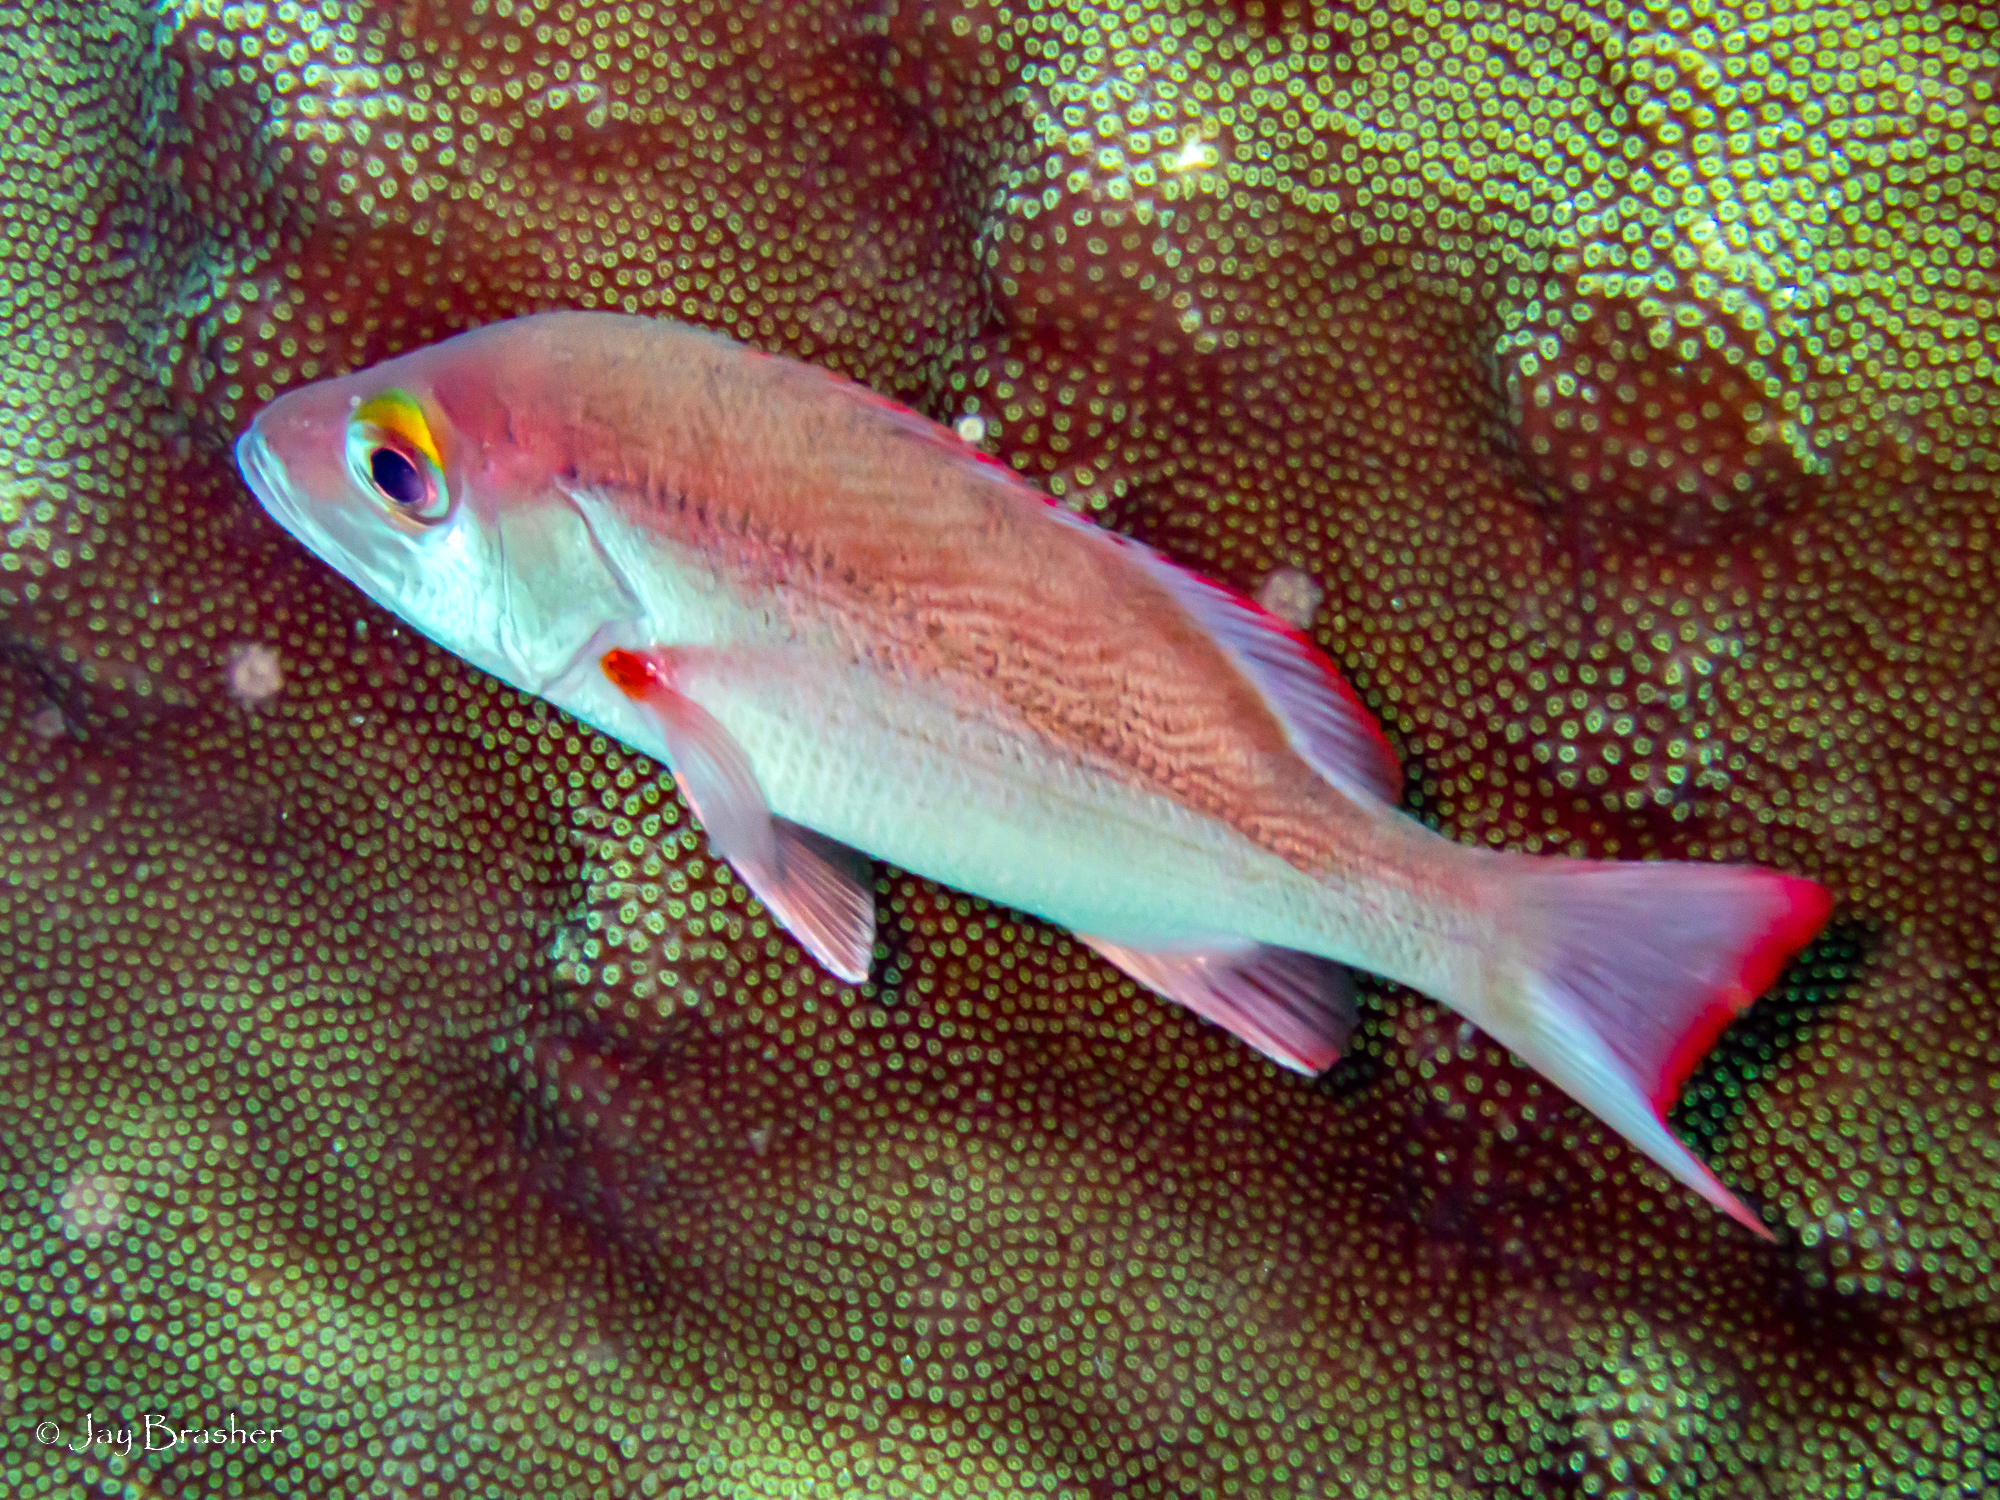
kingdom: Animalia
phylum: Chordata
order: Perciformes
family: Lutjanidae
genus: Lutjanus
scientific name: Lutjanus mahogoni
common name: Spot snapper
